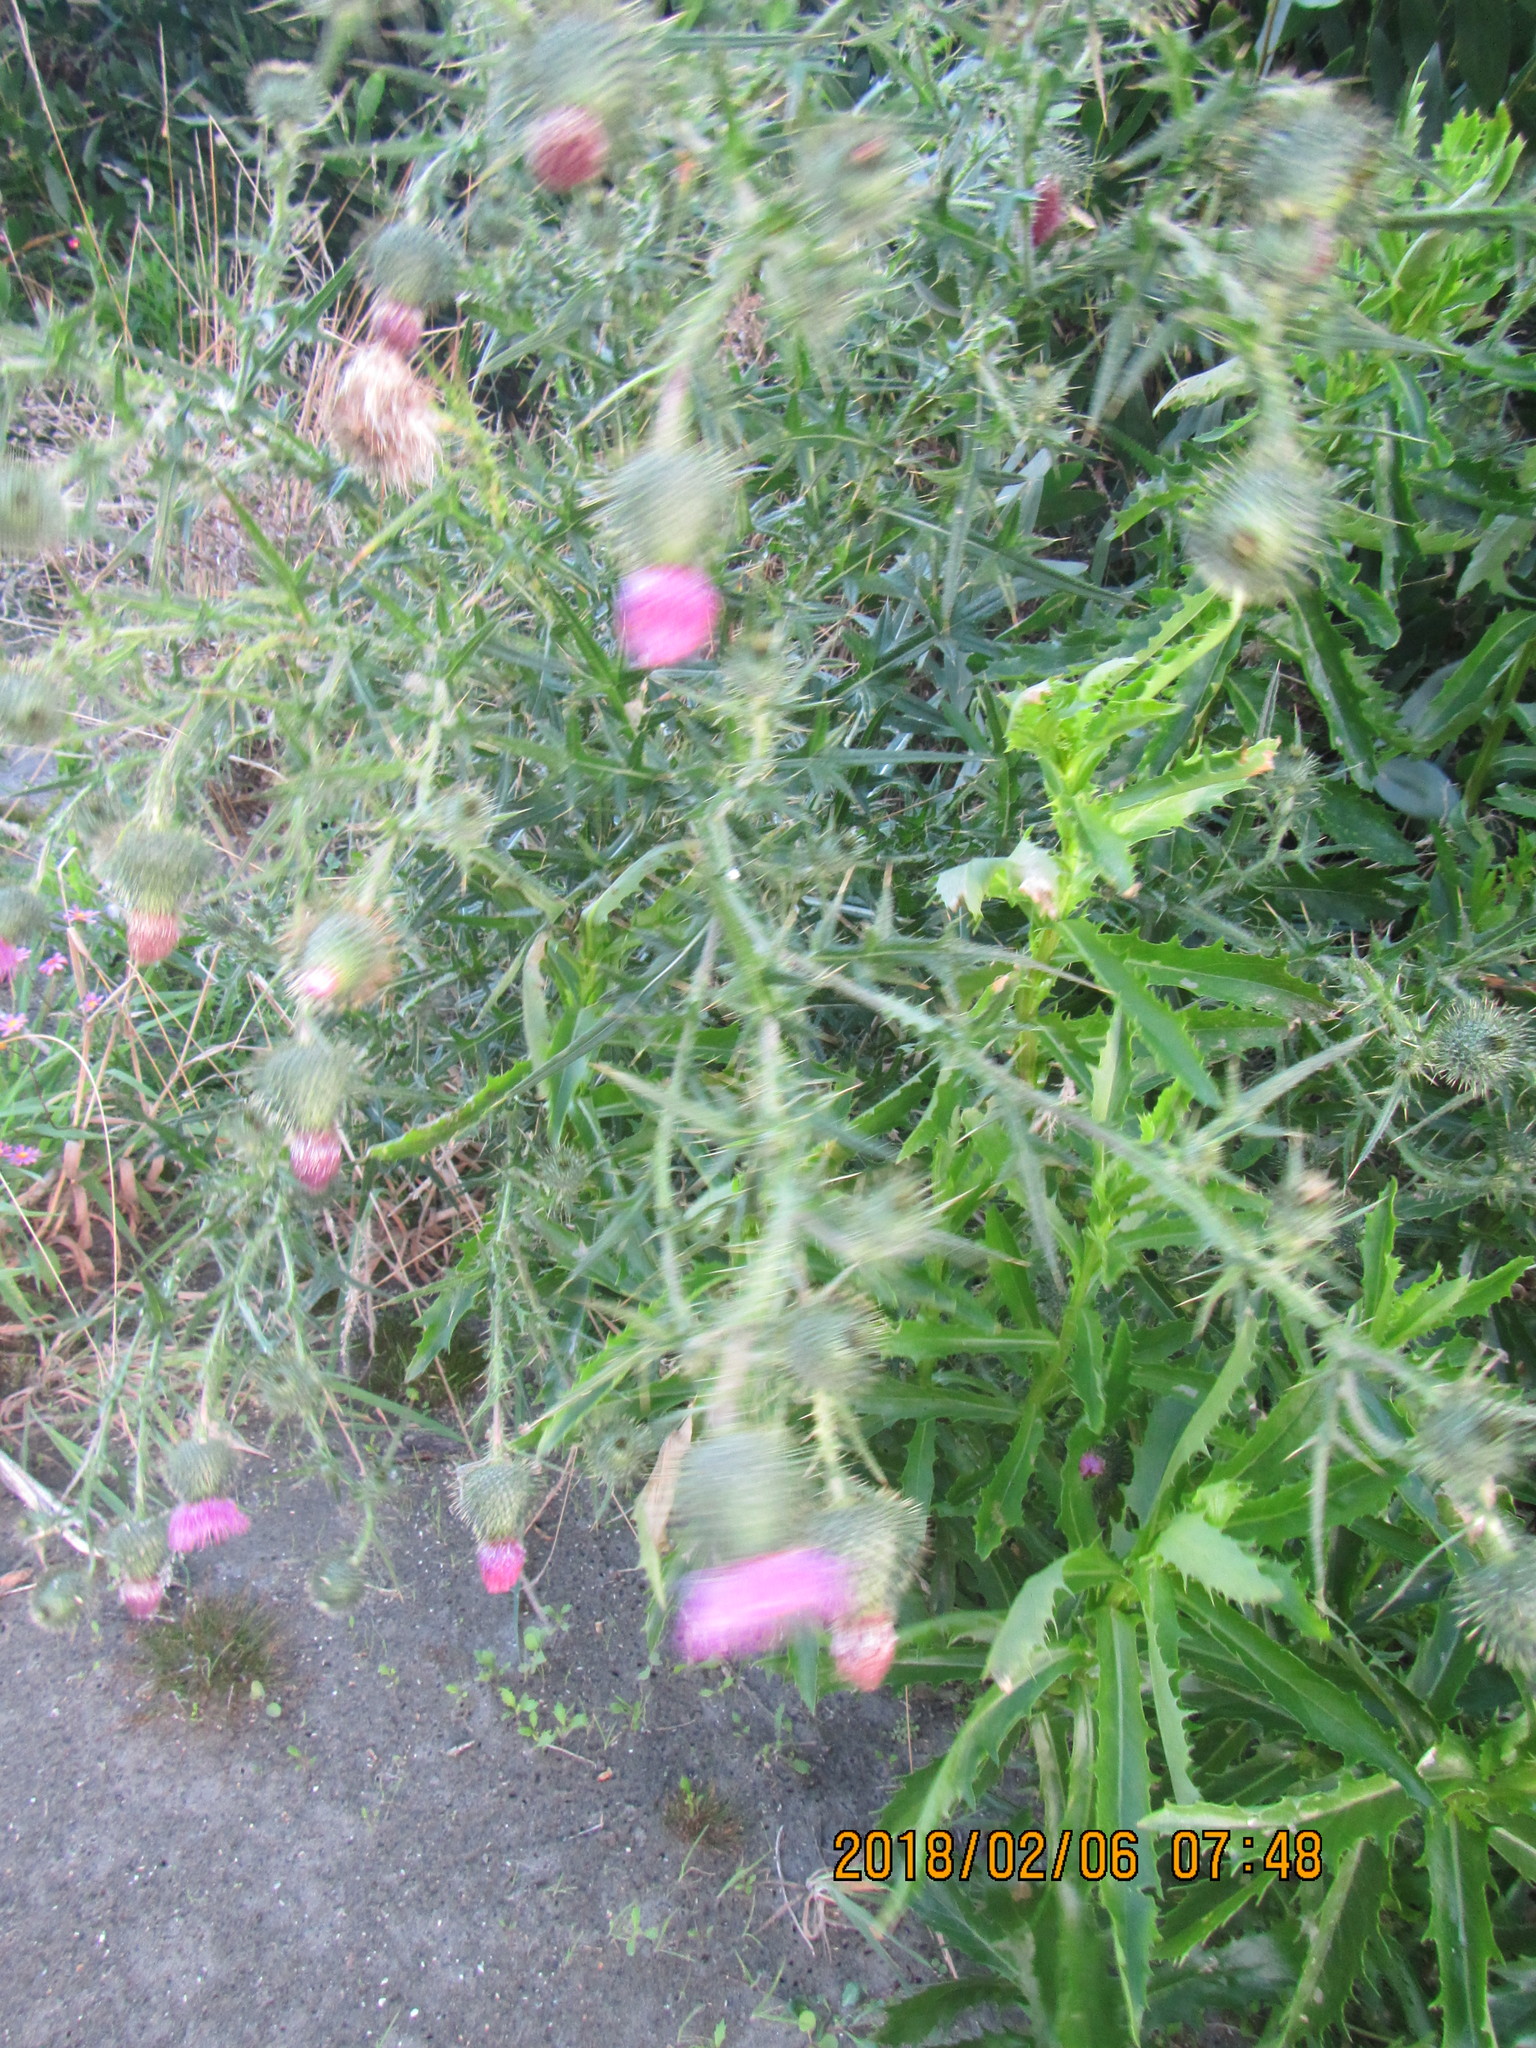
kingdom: Plantae
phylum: Tracheophyta
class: Magnoliopsida
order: Asterales
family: Asteraceae
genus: Cirsium
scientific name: Cirsium vulgare
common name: Bull thistle
